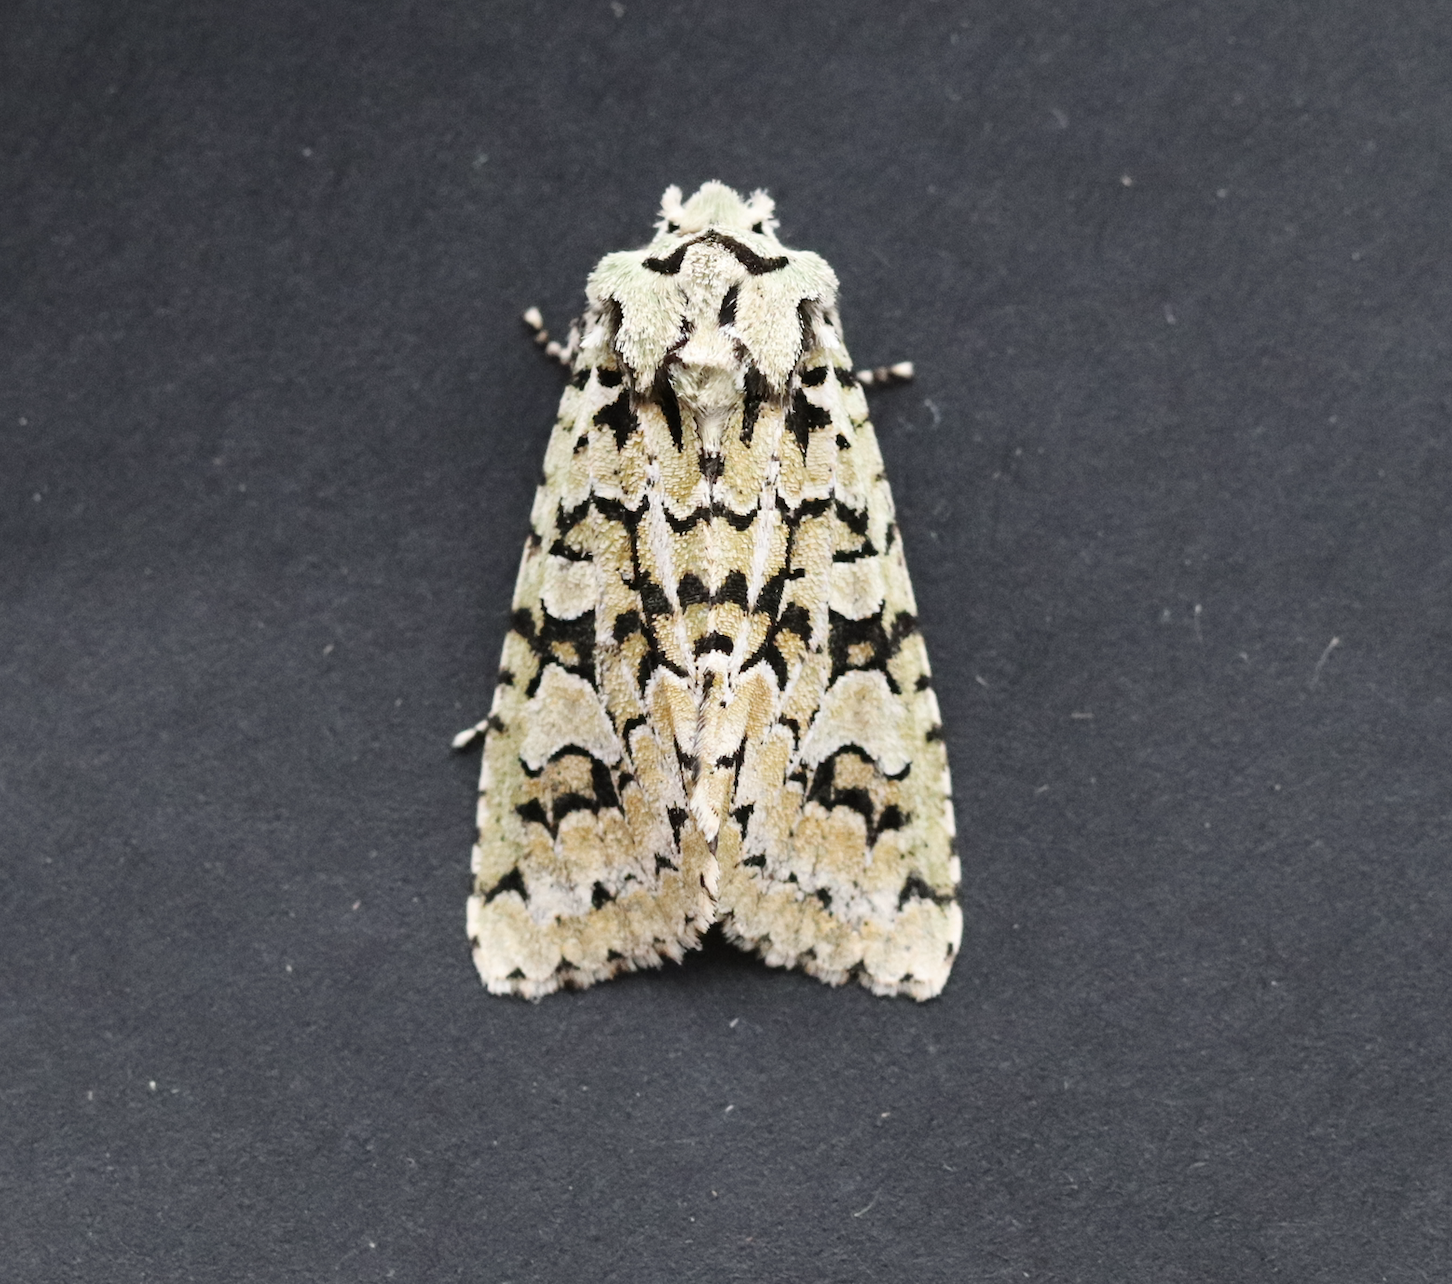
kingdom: Animalia
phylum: Arthropoda
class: Insecta
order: Lepidoptera
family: Noctuidae
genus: Griposia
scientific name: Griposia aprilina
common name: Merveille du jour
